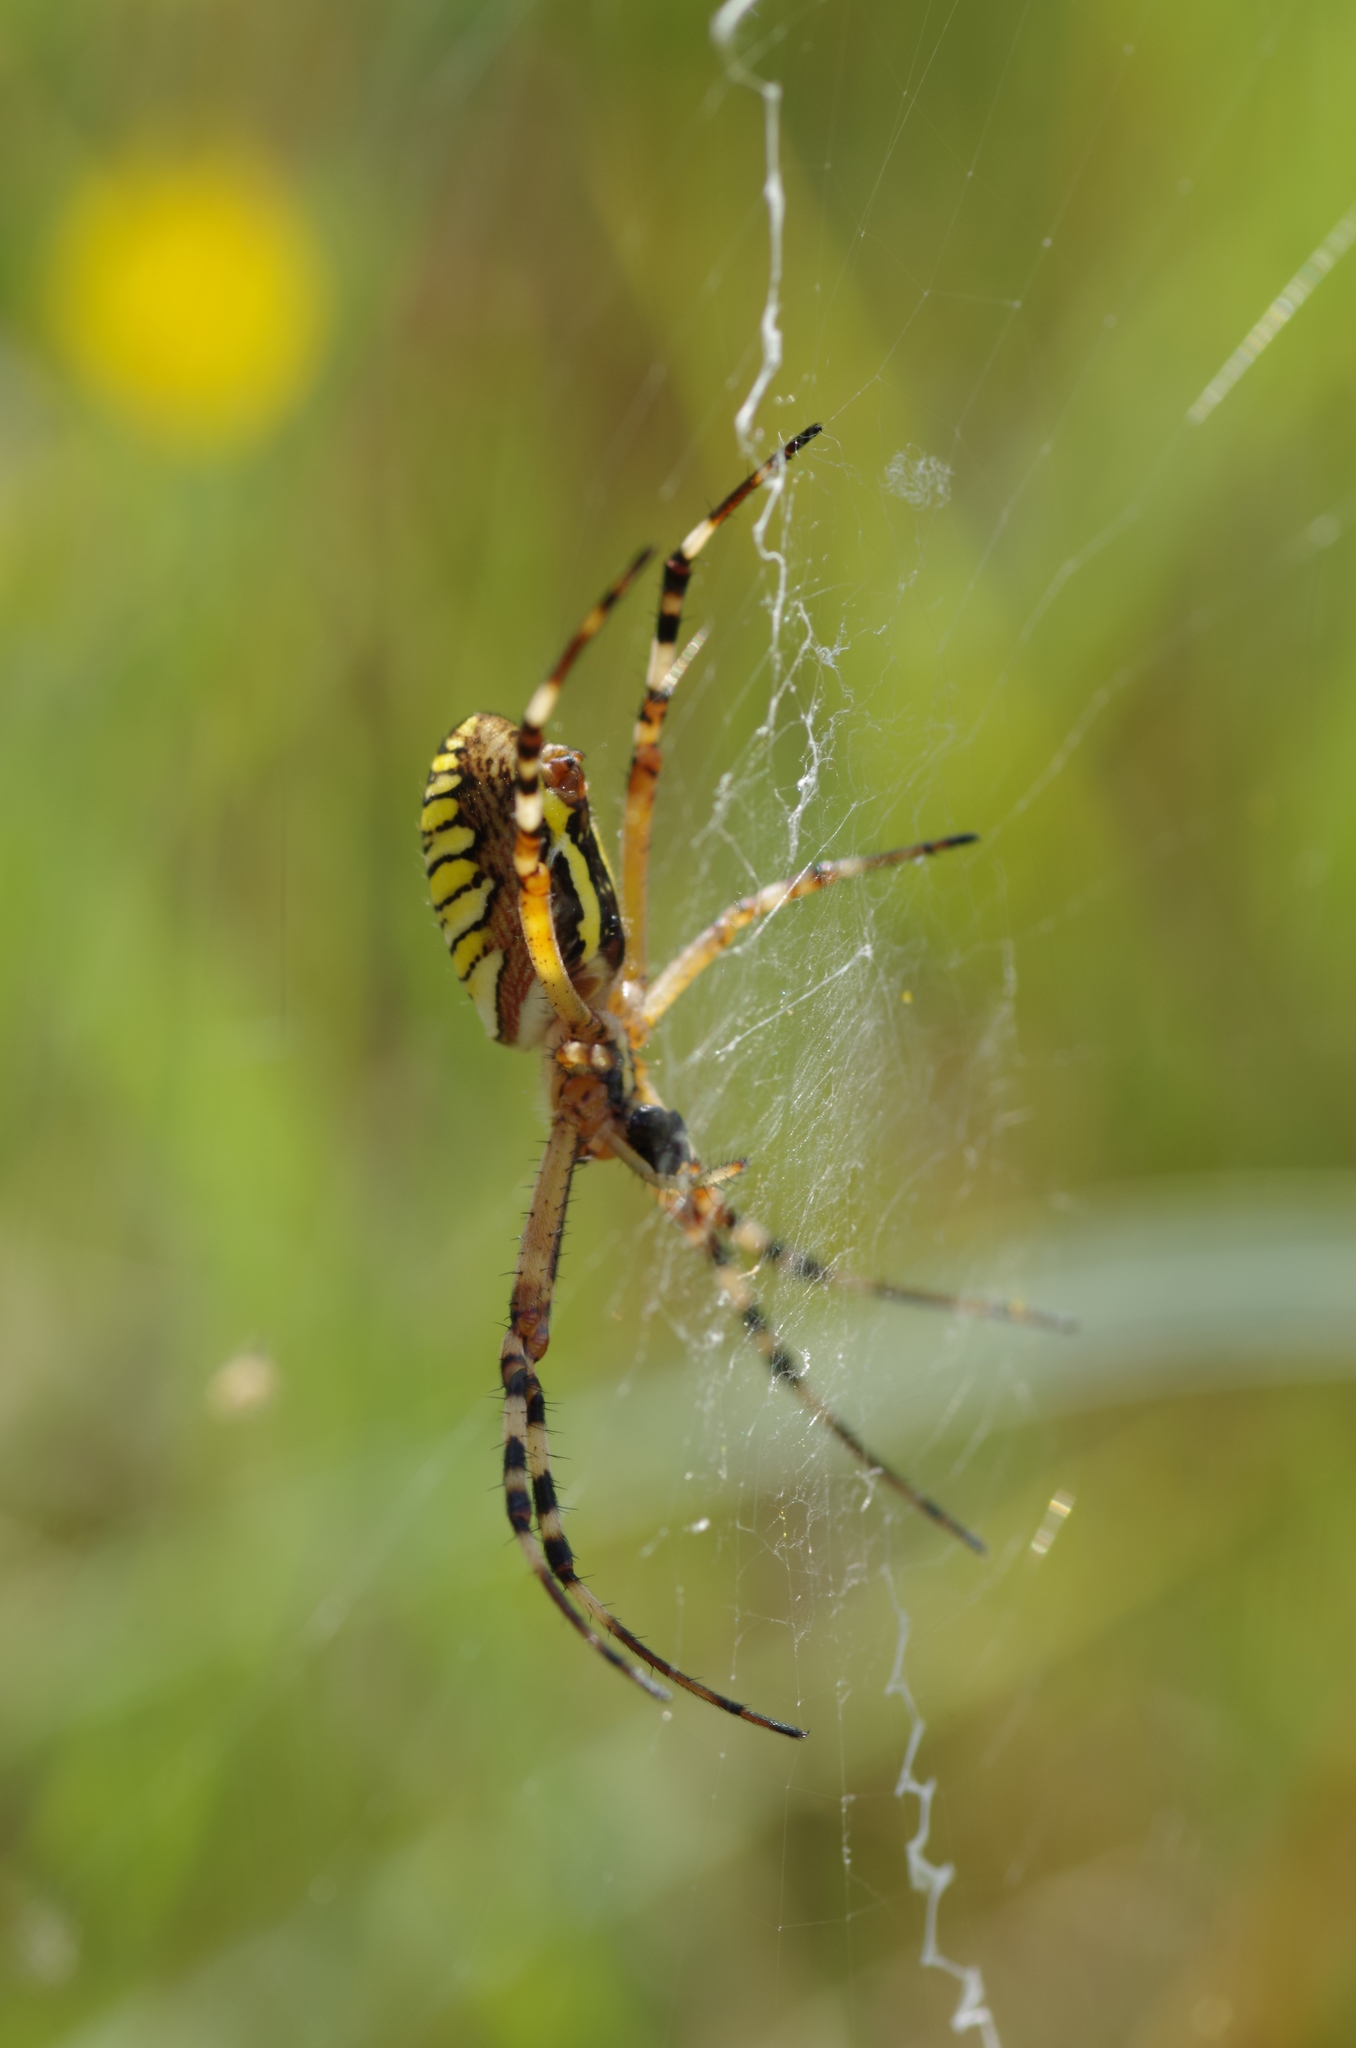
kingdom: Animalia
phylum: Arthropoda
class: Arachnida
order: Araneae
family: Araneidae
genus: Argiope
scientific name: Argiope bruennichi
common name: Wasp spider
